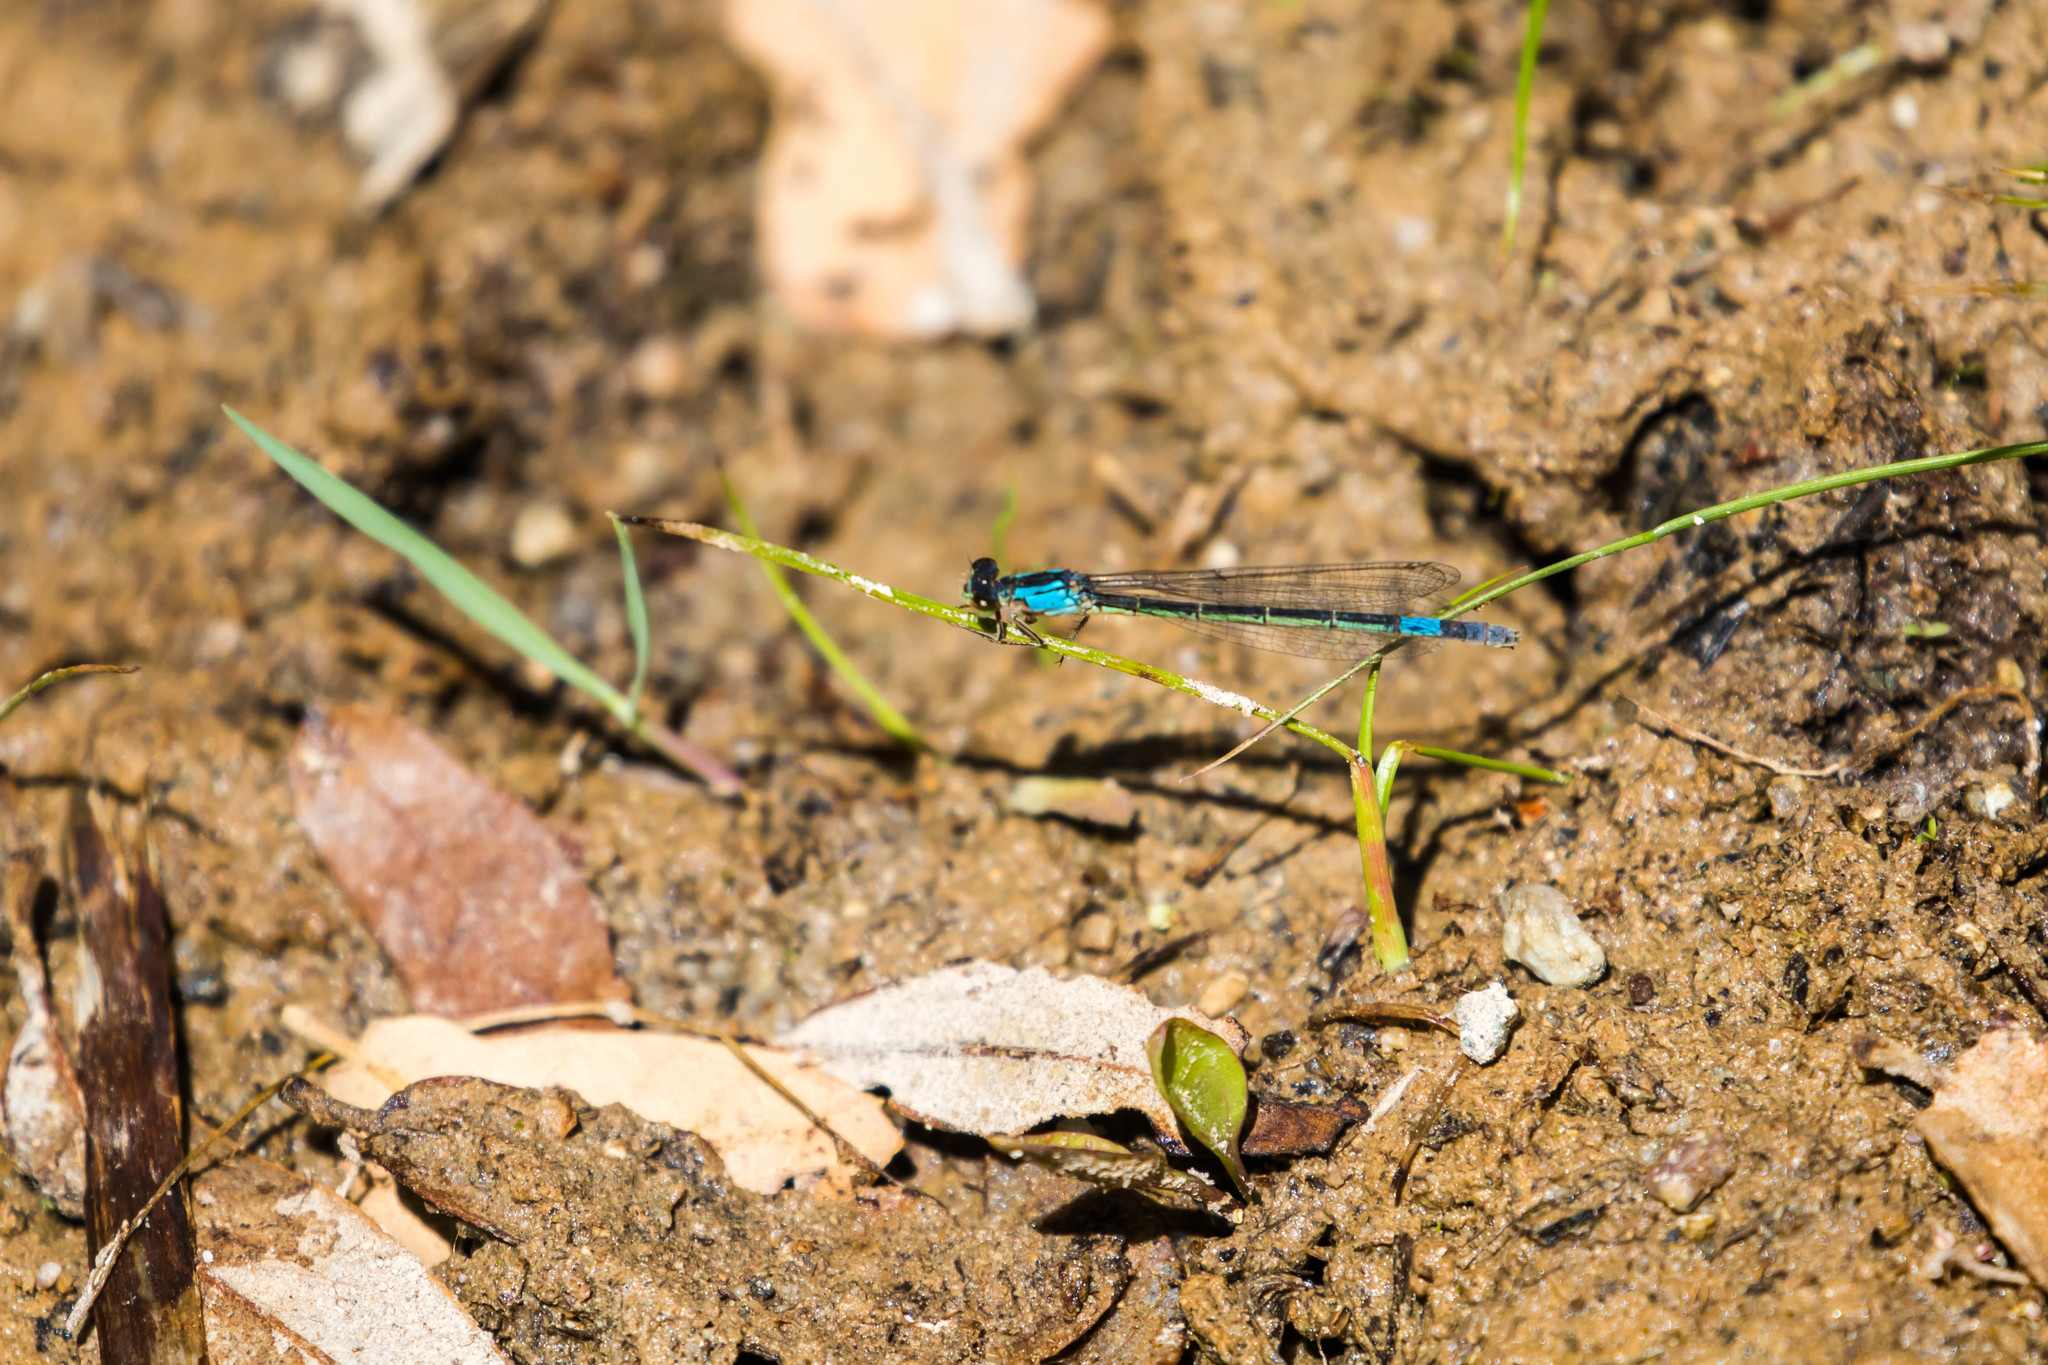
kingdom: Animalia
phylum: Arthropoda
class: Insecta
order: Odonata
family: Coenagrionidae
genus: Hesperagrion
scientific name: Hesperagrion heterodoxum
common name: Painted damsel
